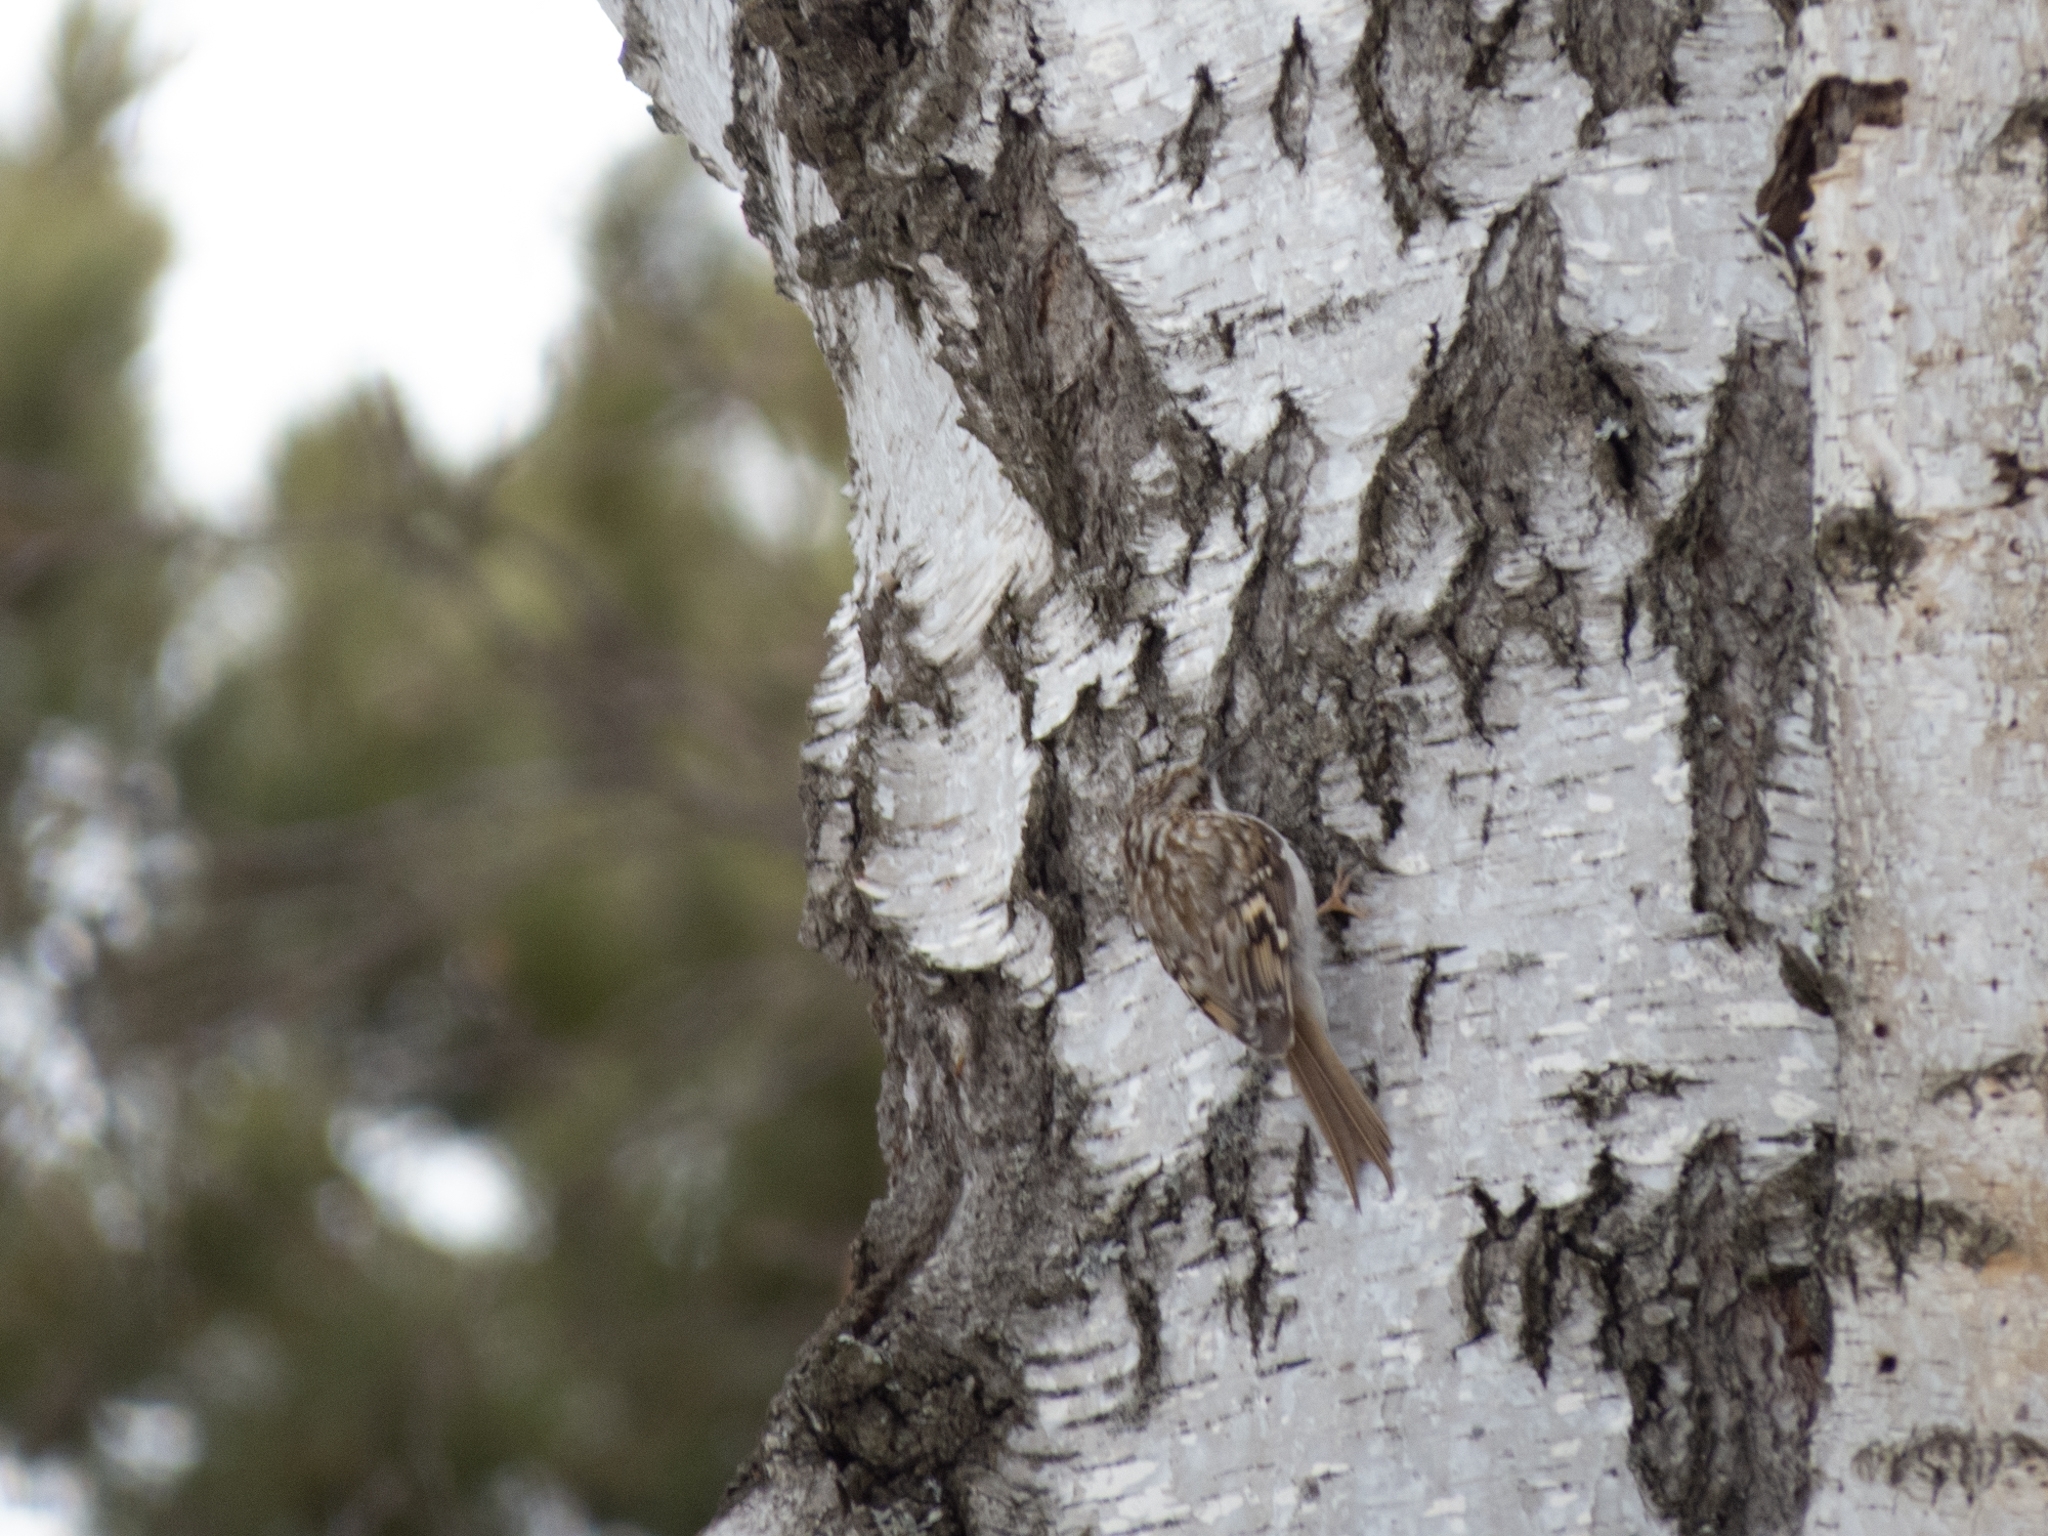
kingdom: Animalia
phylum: Chordata
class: Aves
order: Passeriformes
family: Certhiidae
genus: Certhia
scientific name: Certhia familiaris
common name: Eurasian treecreeper
